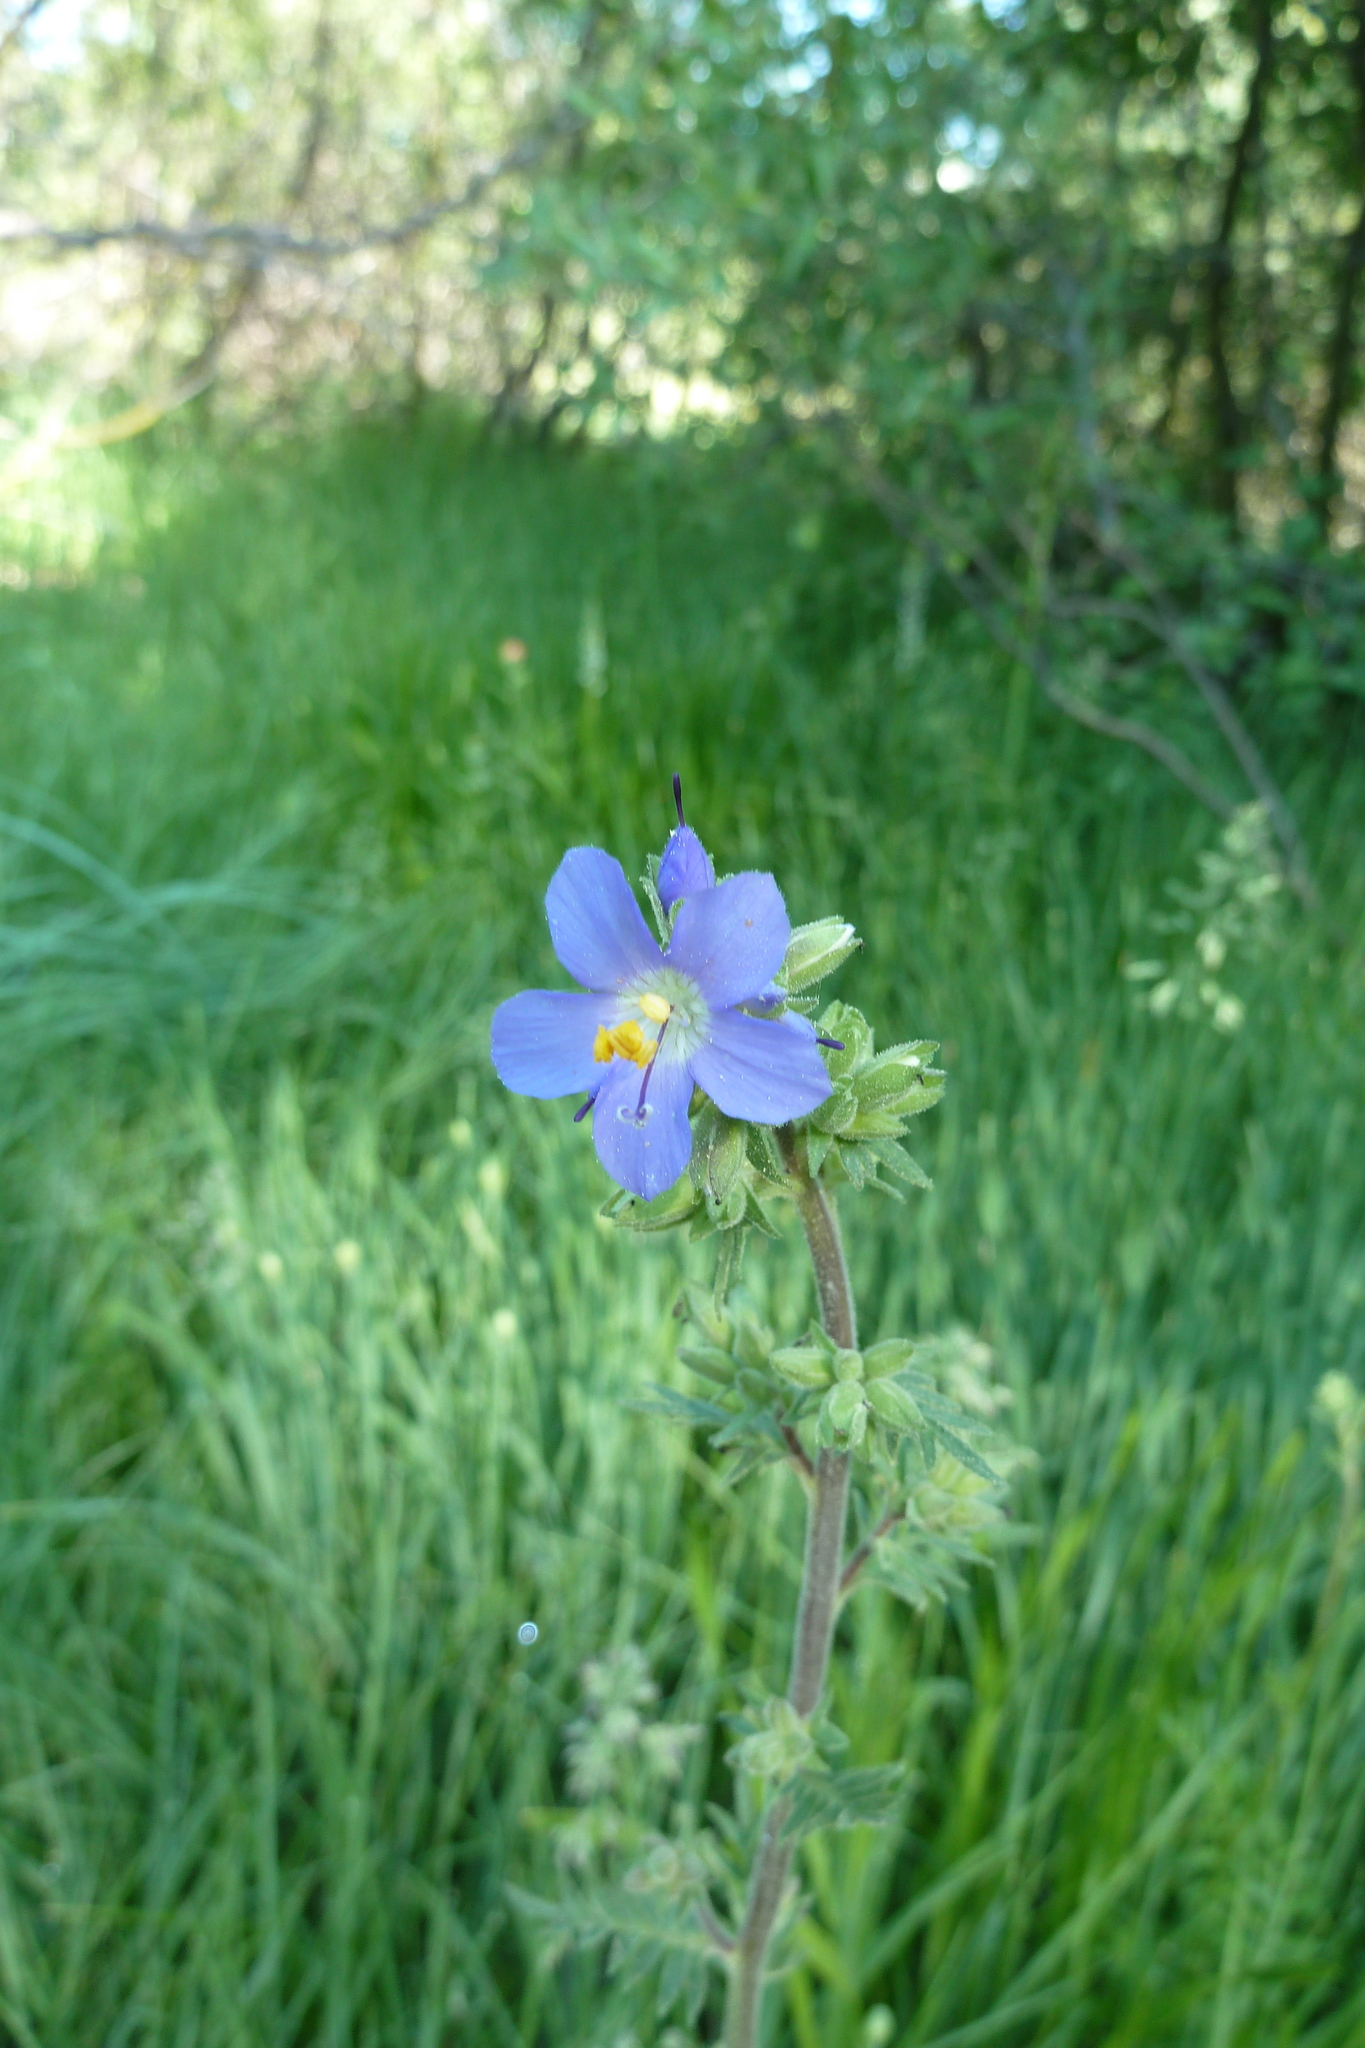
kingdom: Plantae
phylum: Tracheophyta
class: Magnoliopsida
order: Ericales
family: Polemoniaceae
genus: Polemonium
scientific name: Polemonium occidentale
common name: Western jacob's-ladder
